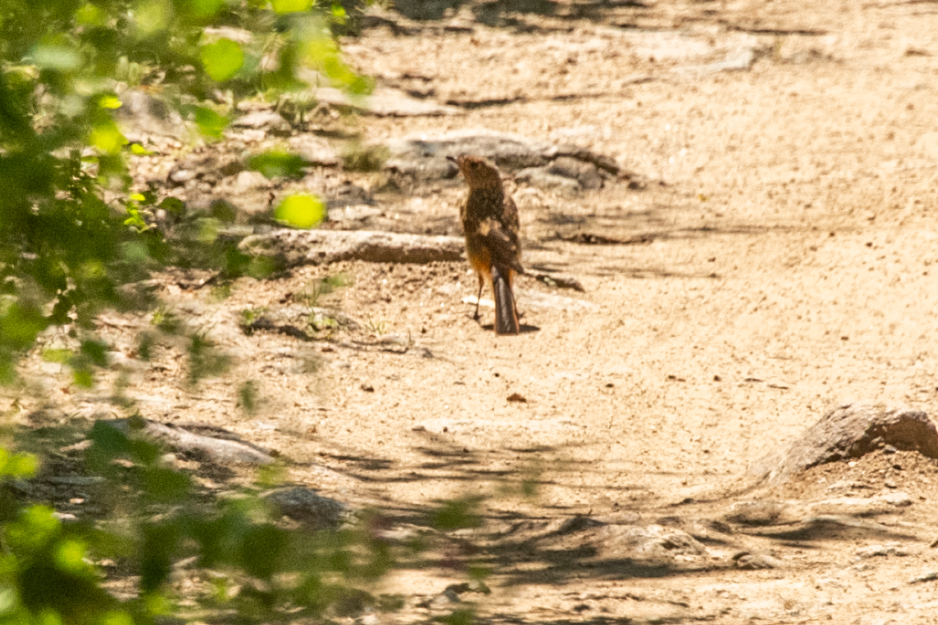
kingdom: Animalia
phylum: Chordata
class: Aves
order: Passeriformes
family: Muscicapidae
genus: Phoenicurus
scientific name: Phoenicurus auroreus
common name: Daurian redstart
